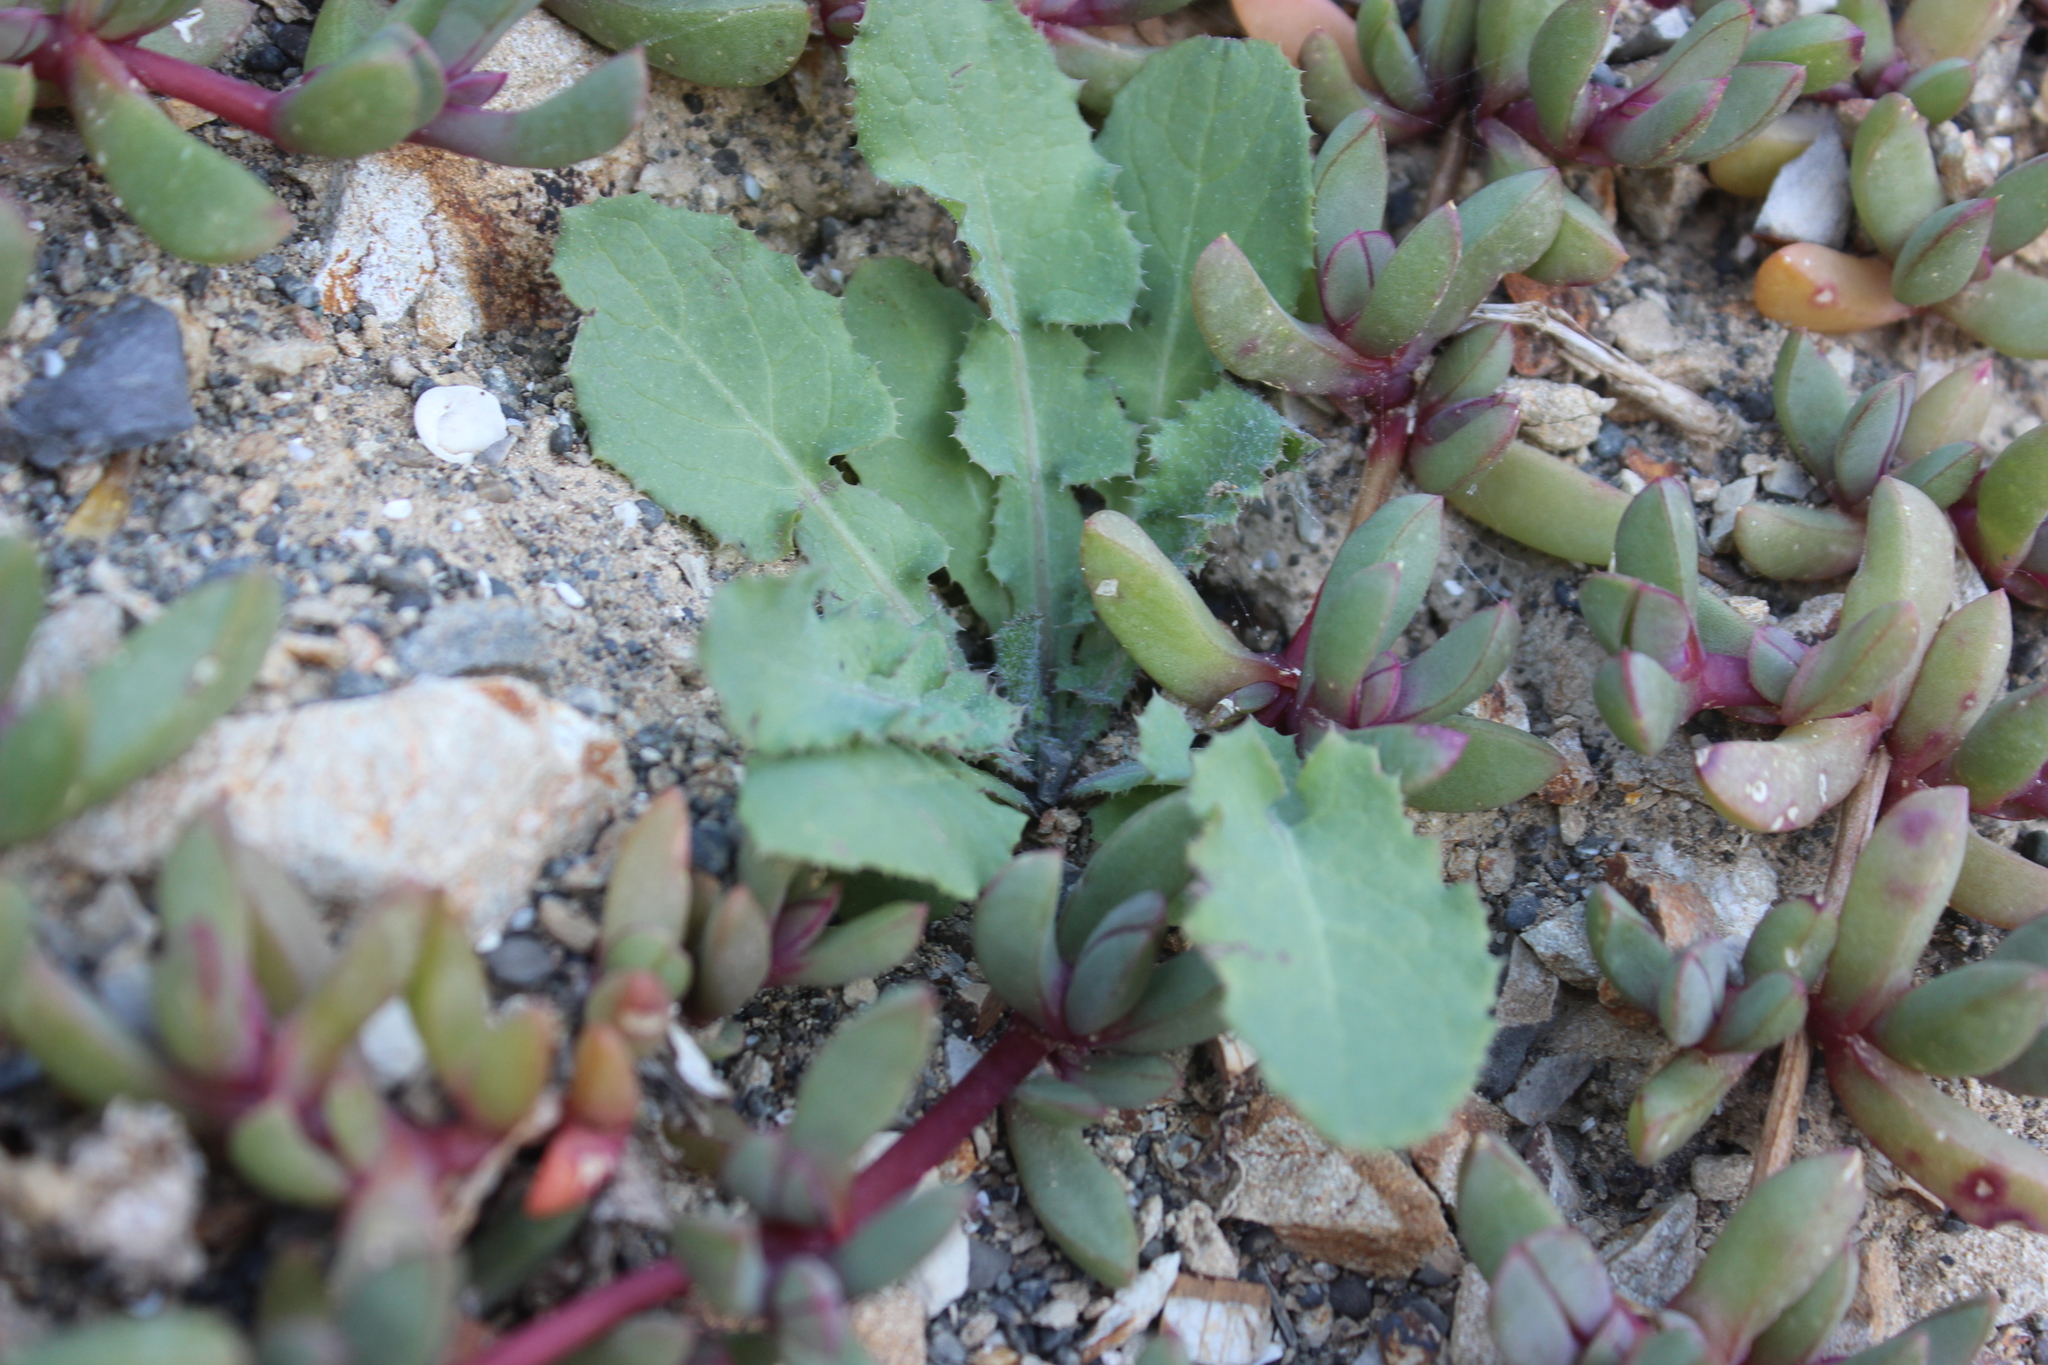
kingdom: Plantae
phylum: Tracheophyta
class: Magnoliopsida
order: Asterales
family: Asteraceae
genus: Sonchus
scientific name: Sonchus oleraceus
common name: Common sowthistle
